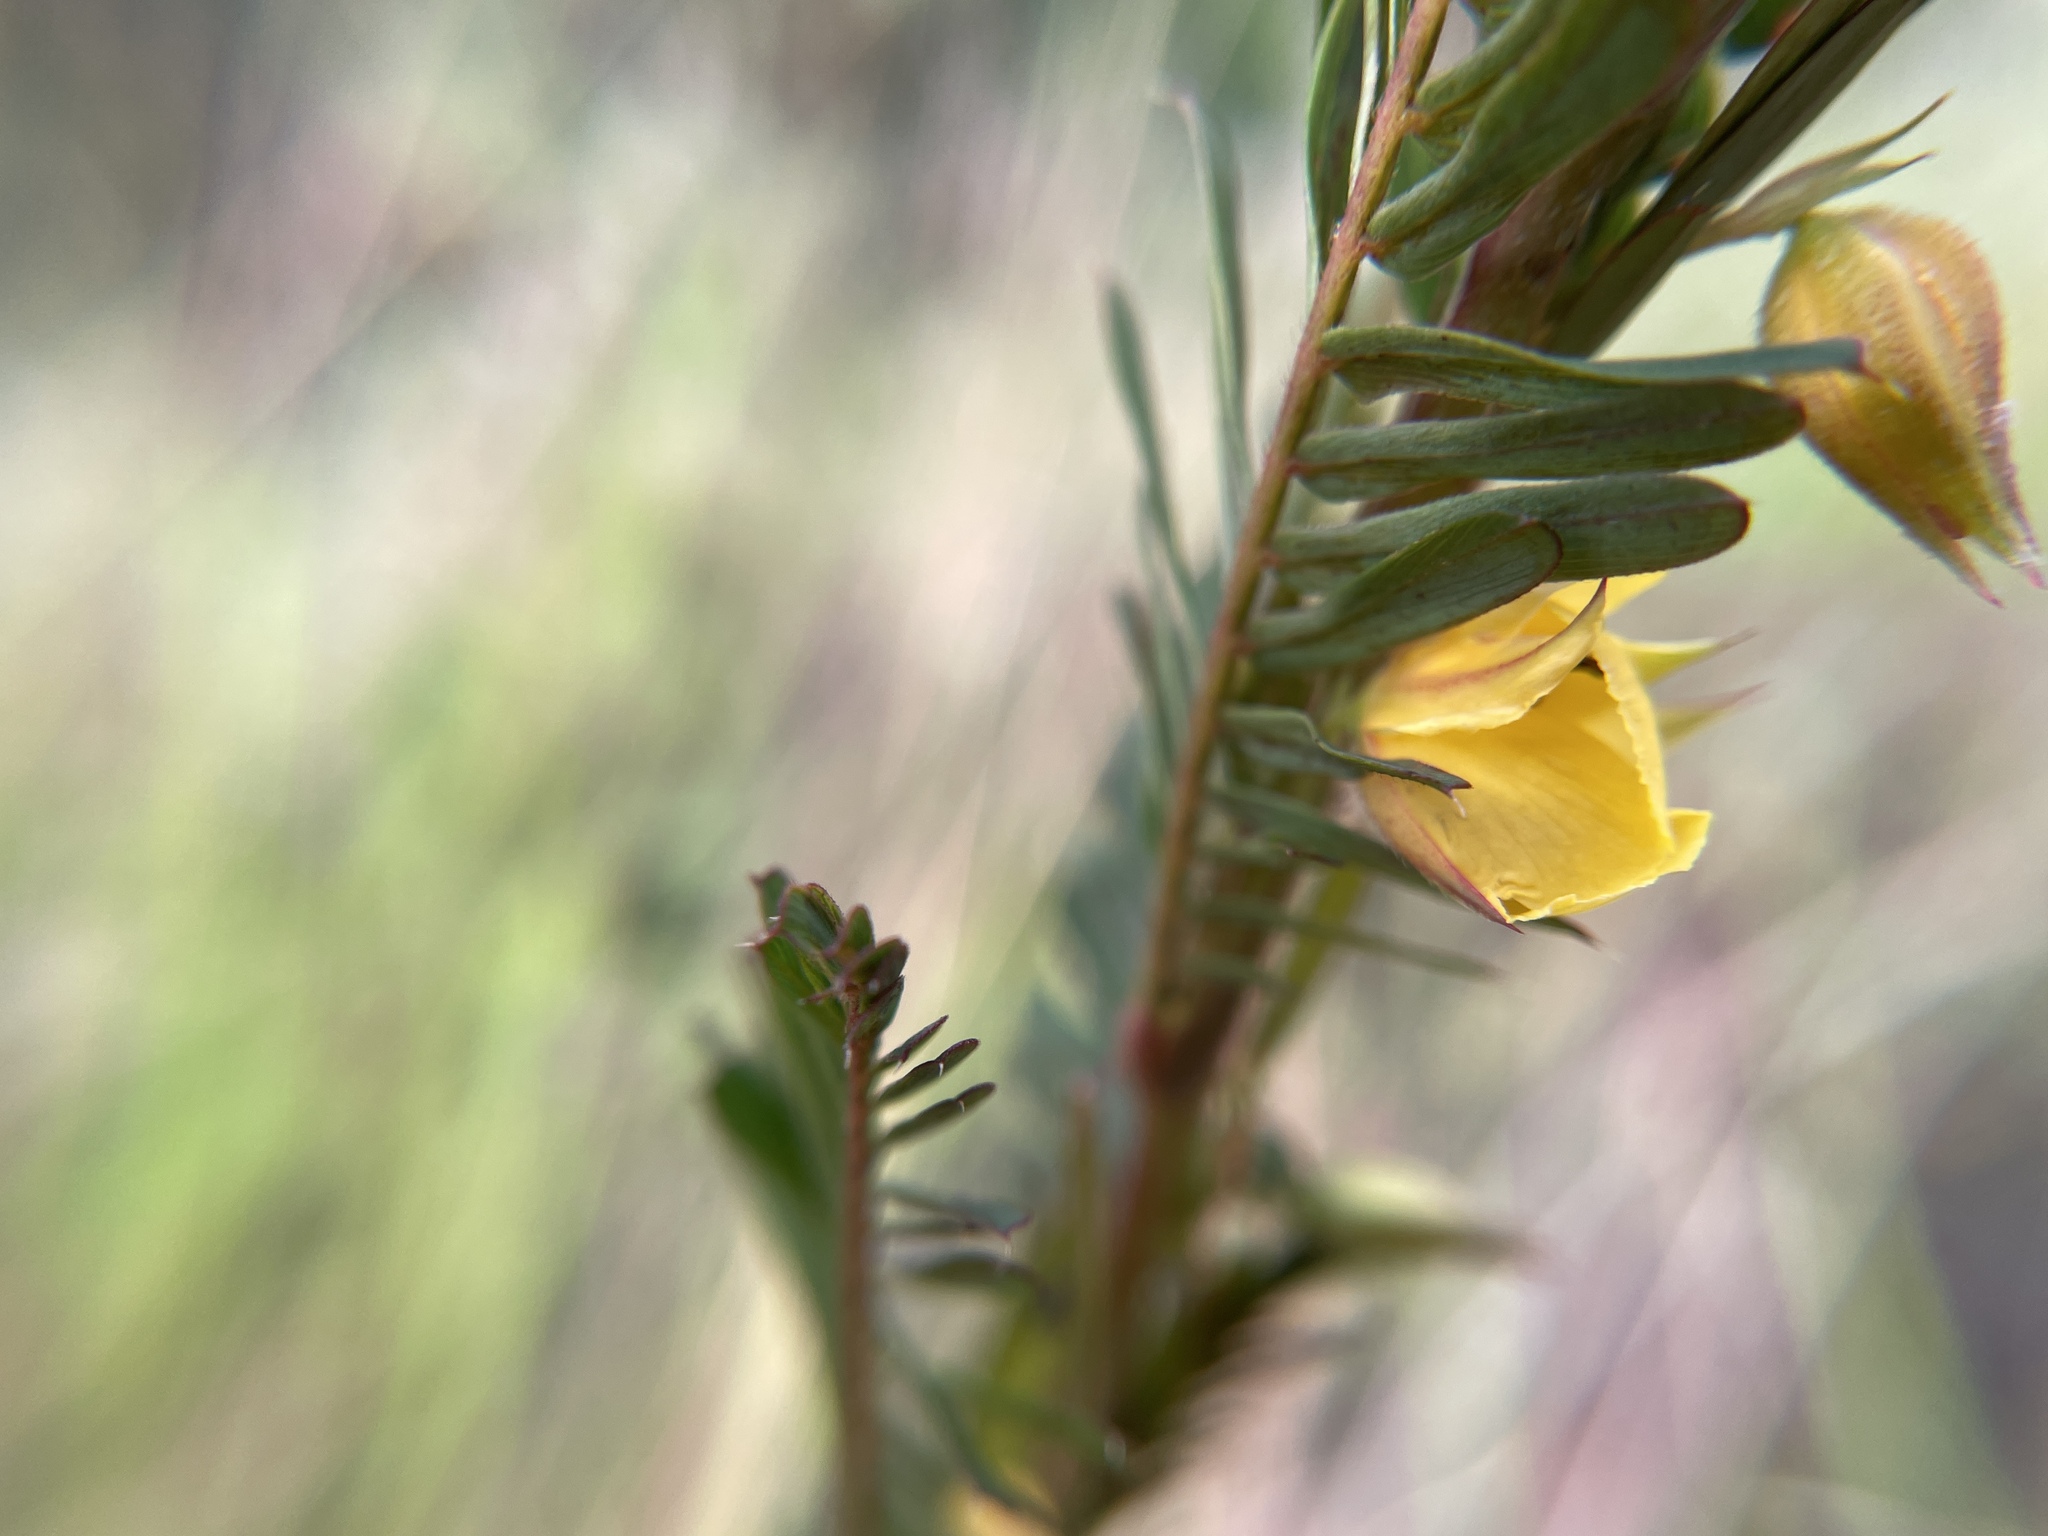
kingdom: Plantae
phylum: Tracheophyta
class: Magnoliopsida
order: Fabales
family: Fabaceae
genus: Chamaecrista
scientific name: Chamaecrista nictitans
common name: Sensitive cassia
